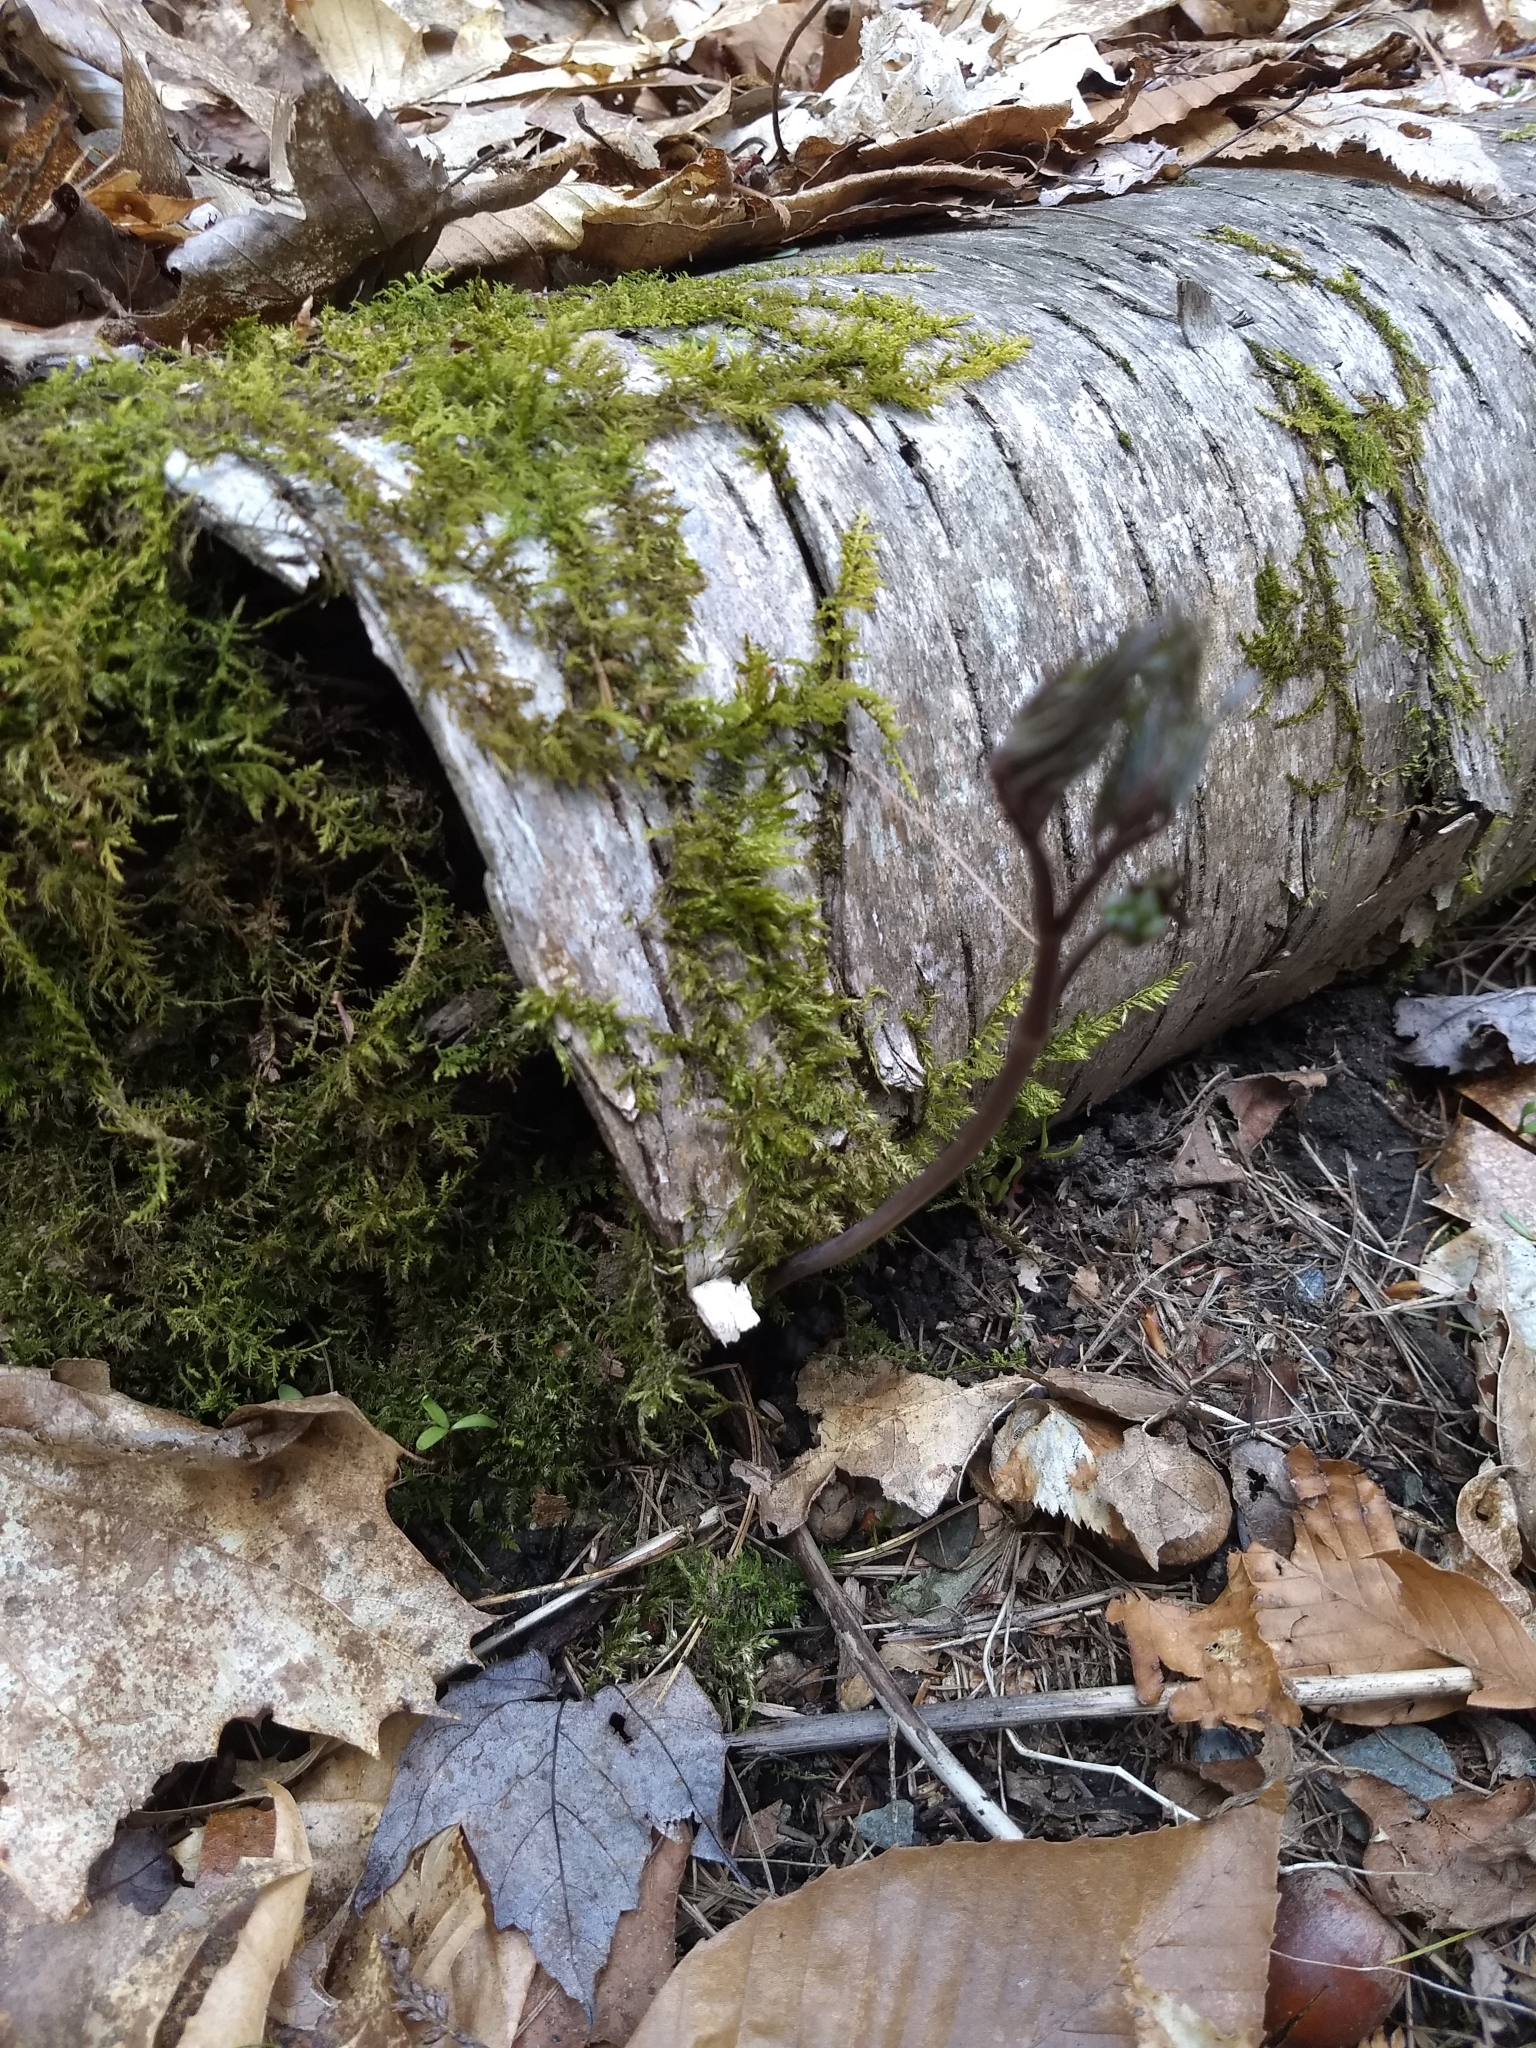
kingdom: Plantae
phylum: Tracheophyta
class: Magnoliopsida
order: Ranunculales
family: Berberidaceae
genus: Caulophyllum
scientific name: Caulophyllum giganteum
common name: Blue cohosh
